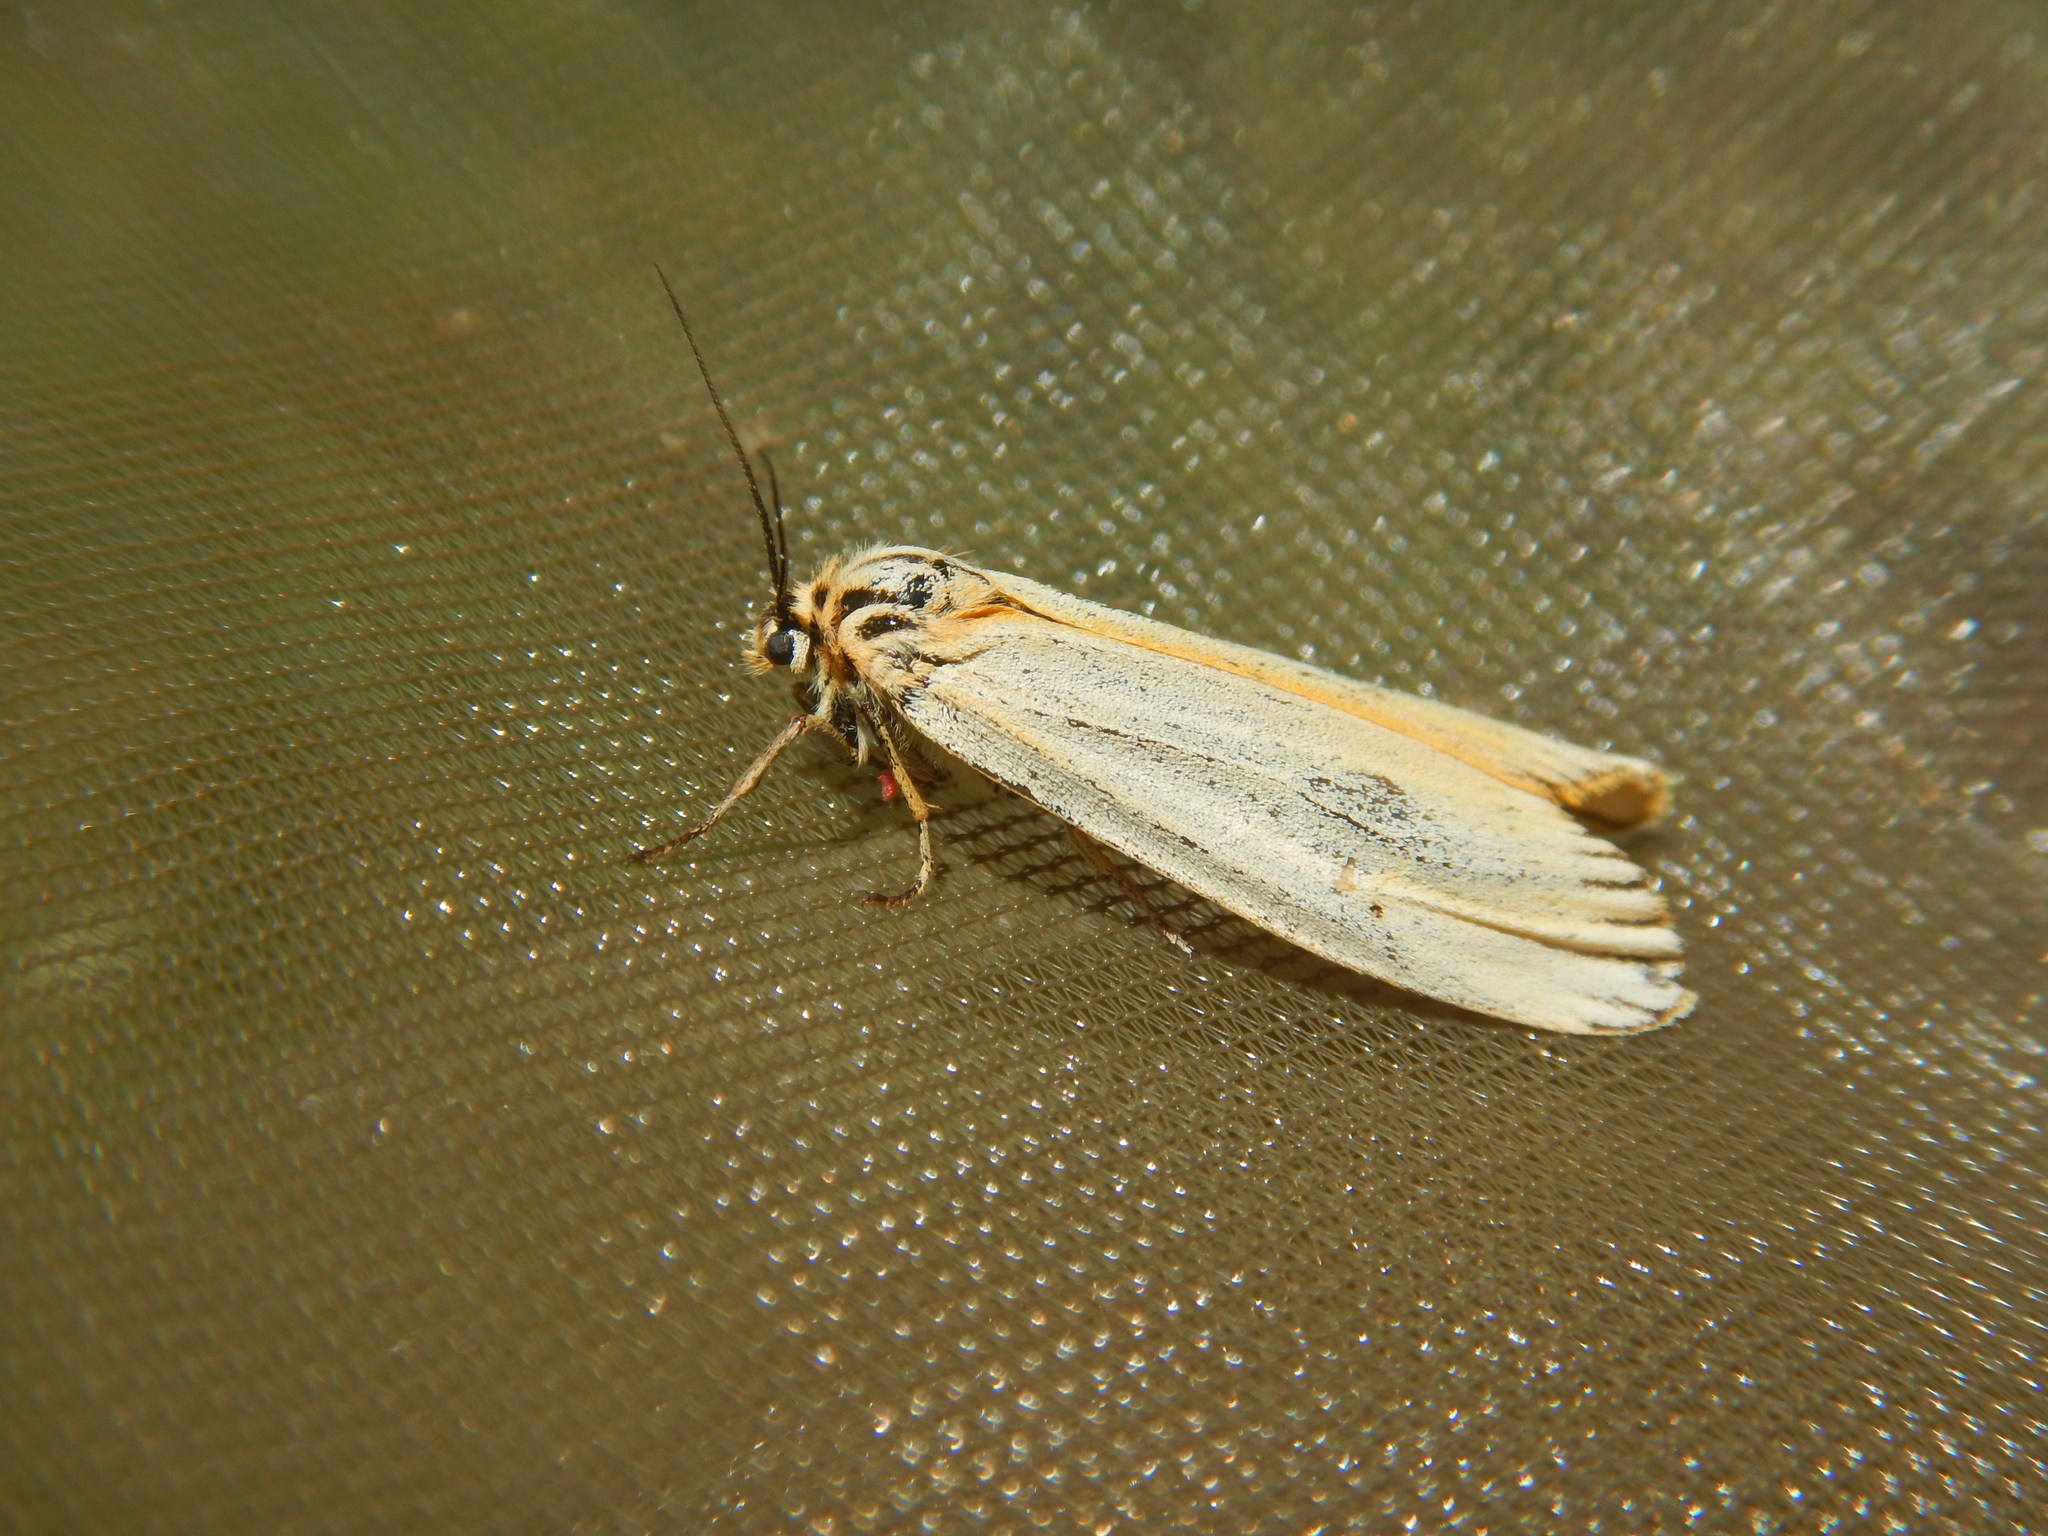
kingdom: Animalia
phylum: Arthropoda
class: Insecta
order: Lepidoptera
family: Erebidae
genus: Coscinia
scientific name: Coscinia Spiris striata
